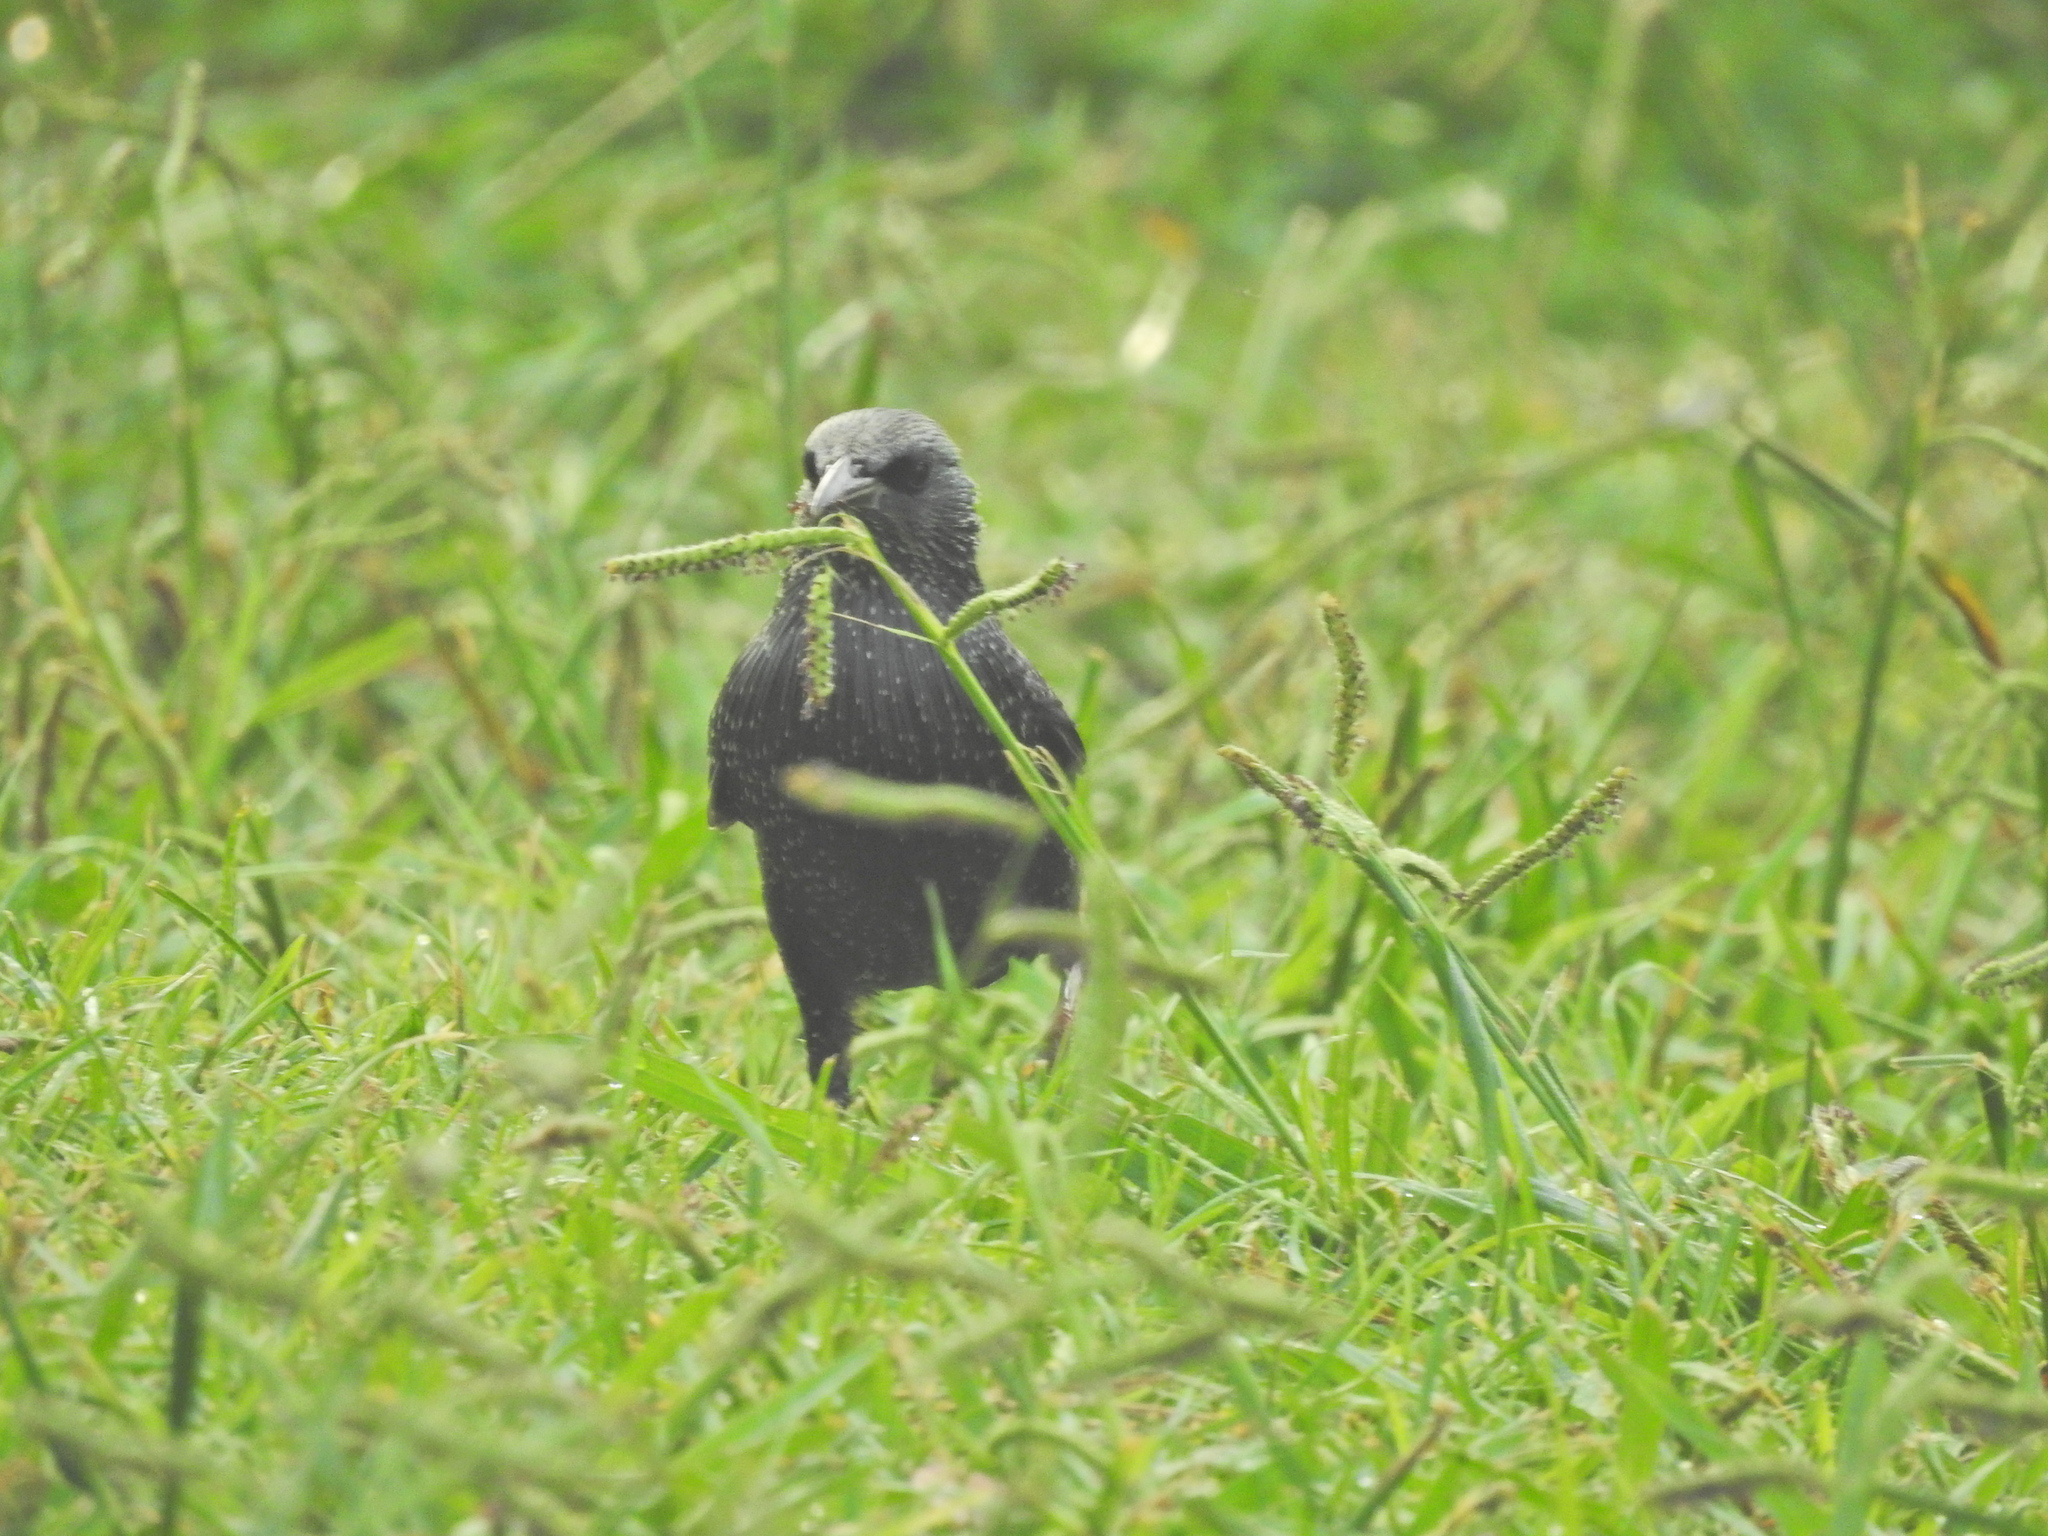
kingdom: Animalia
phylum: Chordata
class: Aves
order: Passeriformes
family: Sturnidae
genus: Sturnus
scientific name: Sturnus unicolor
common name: Spotless starling
